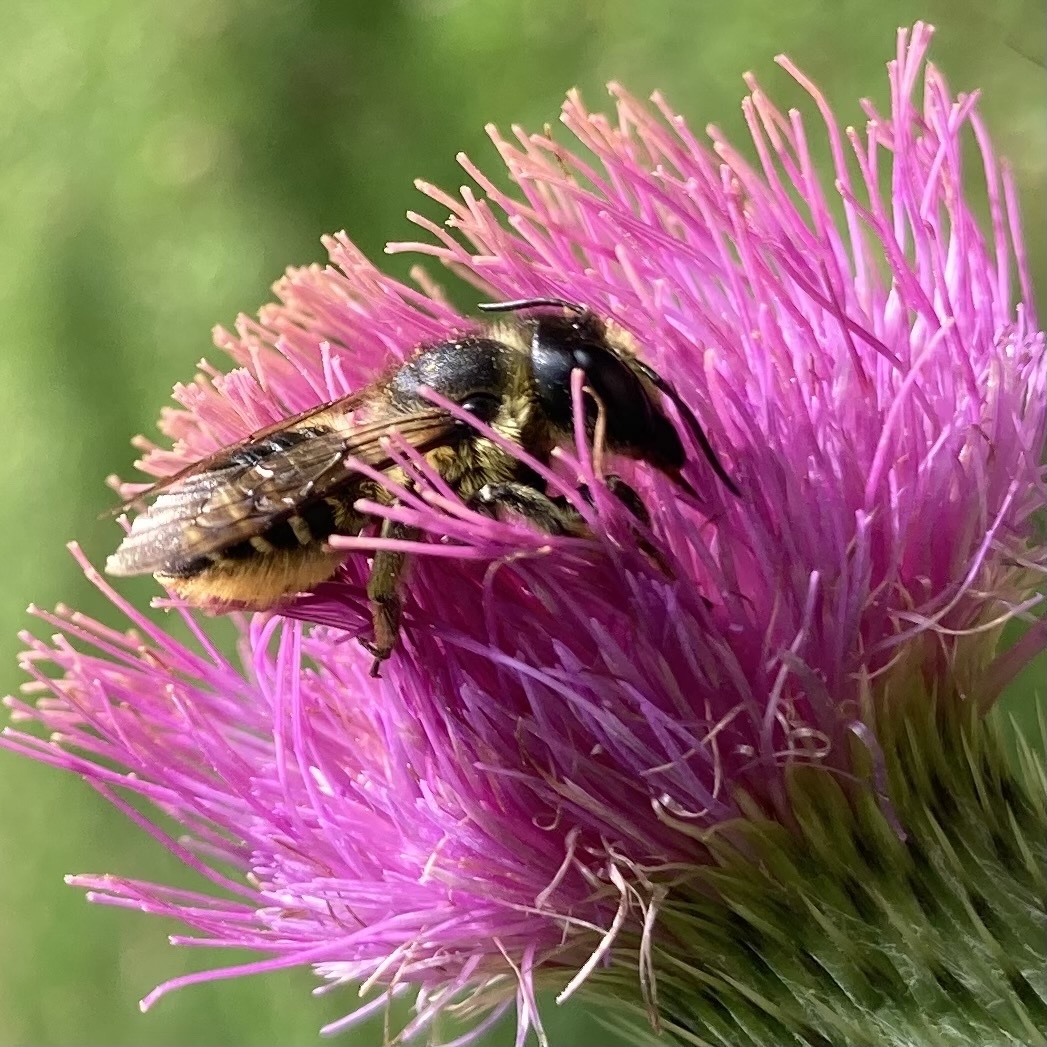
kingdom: Animalia
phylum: Arthropoda
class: Insecta
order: Hymenoptera
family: Megachilidae
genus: Megachile
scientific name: Megachile inermis
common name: Unarmed leafcutter bee
